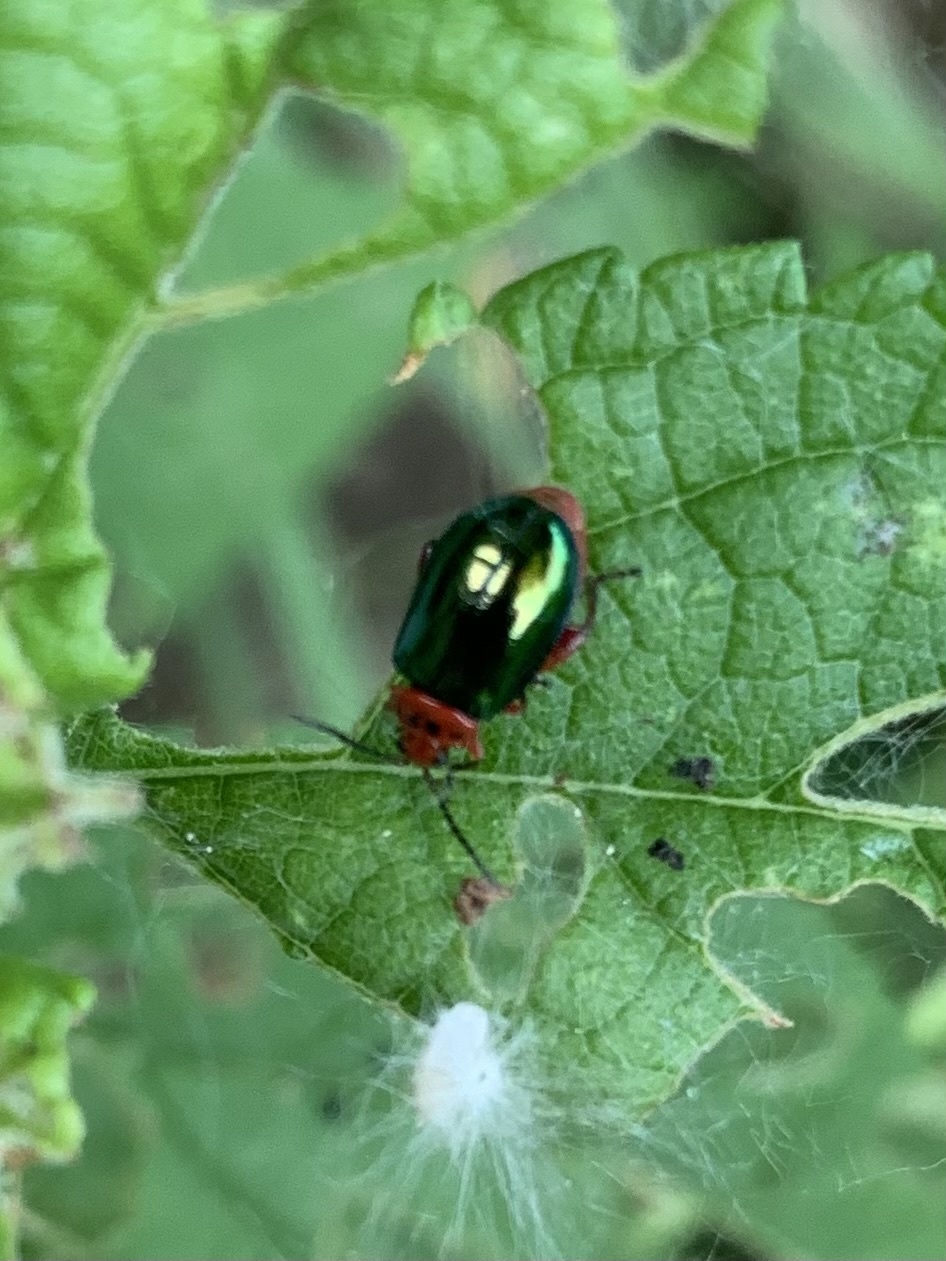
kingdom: Animalia
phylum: Arthropoda
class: Insecta
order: Coleoptera
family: Chrysomelidae
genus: Kuschelina
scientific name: Kuschelina gibbitarsa
